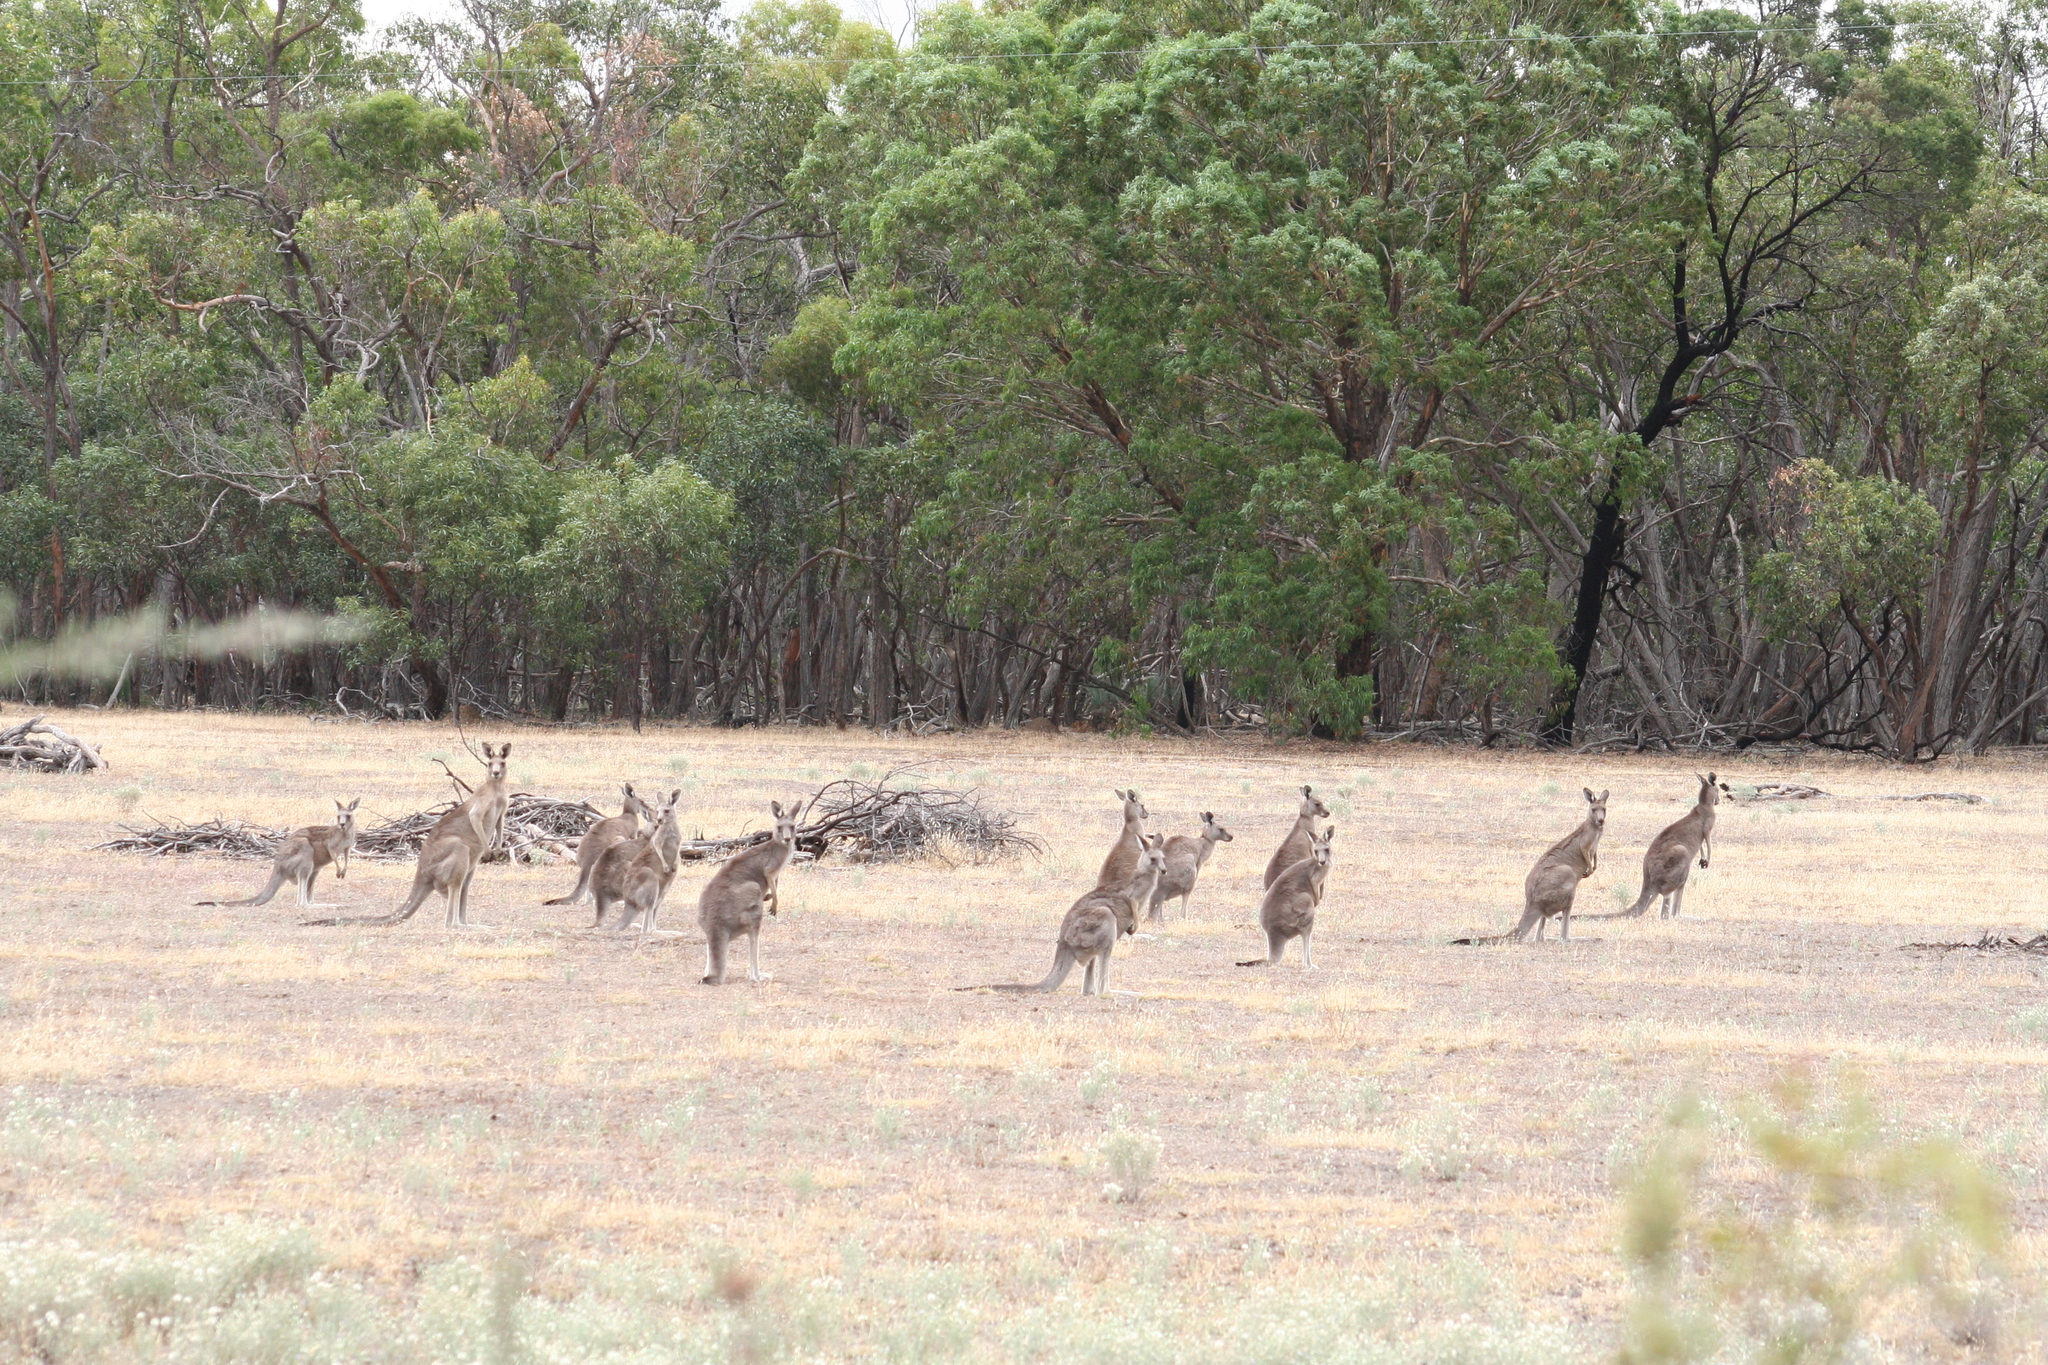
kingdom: Animalia
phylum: Chordata
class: Mammalia
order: Diprotodontia
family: Macropodidae
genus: Macropus
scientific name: Macropus giganteus
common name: Eastern grey kangaroo
